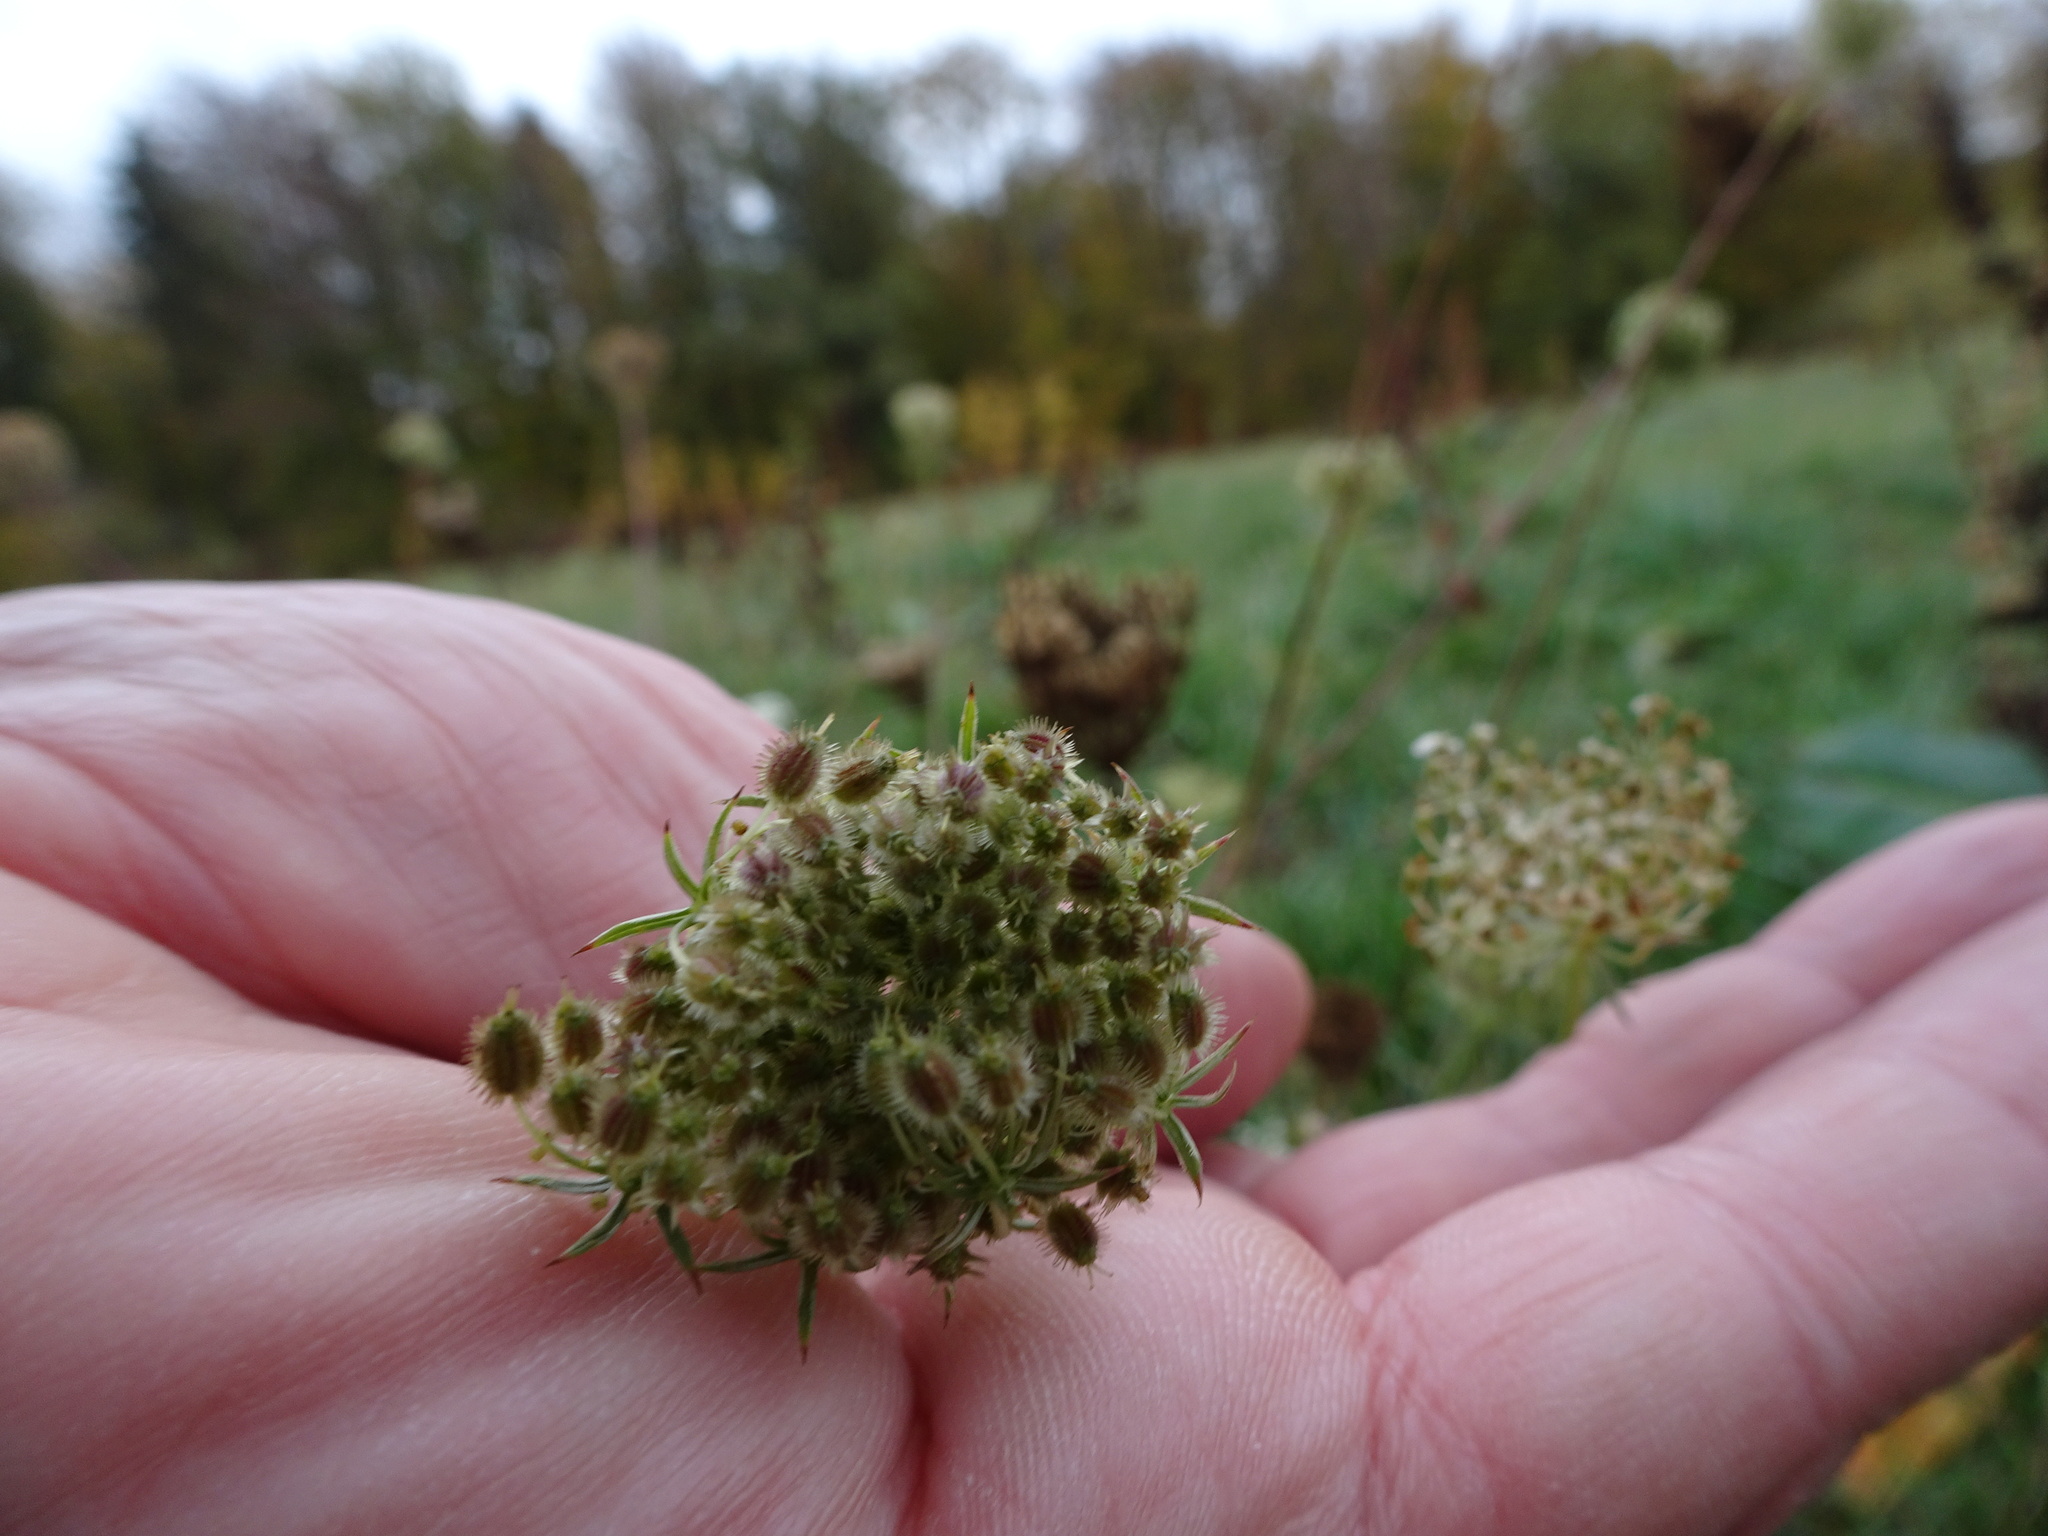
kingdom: Plantae
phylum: Tracheophyta
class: Magnoliopsida
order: Apiales
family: Apiaceae
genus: Daucus
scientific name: Daucus carota
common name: Wild carrot
